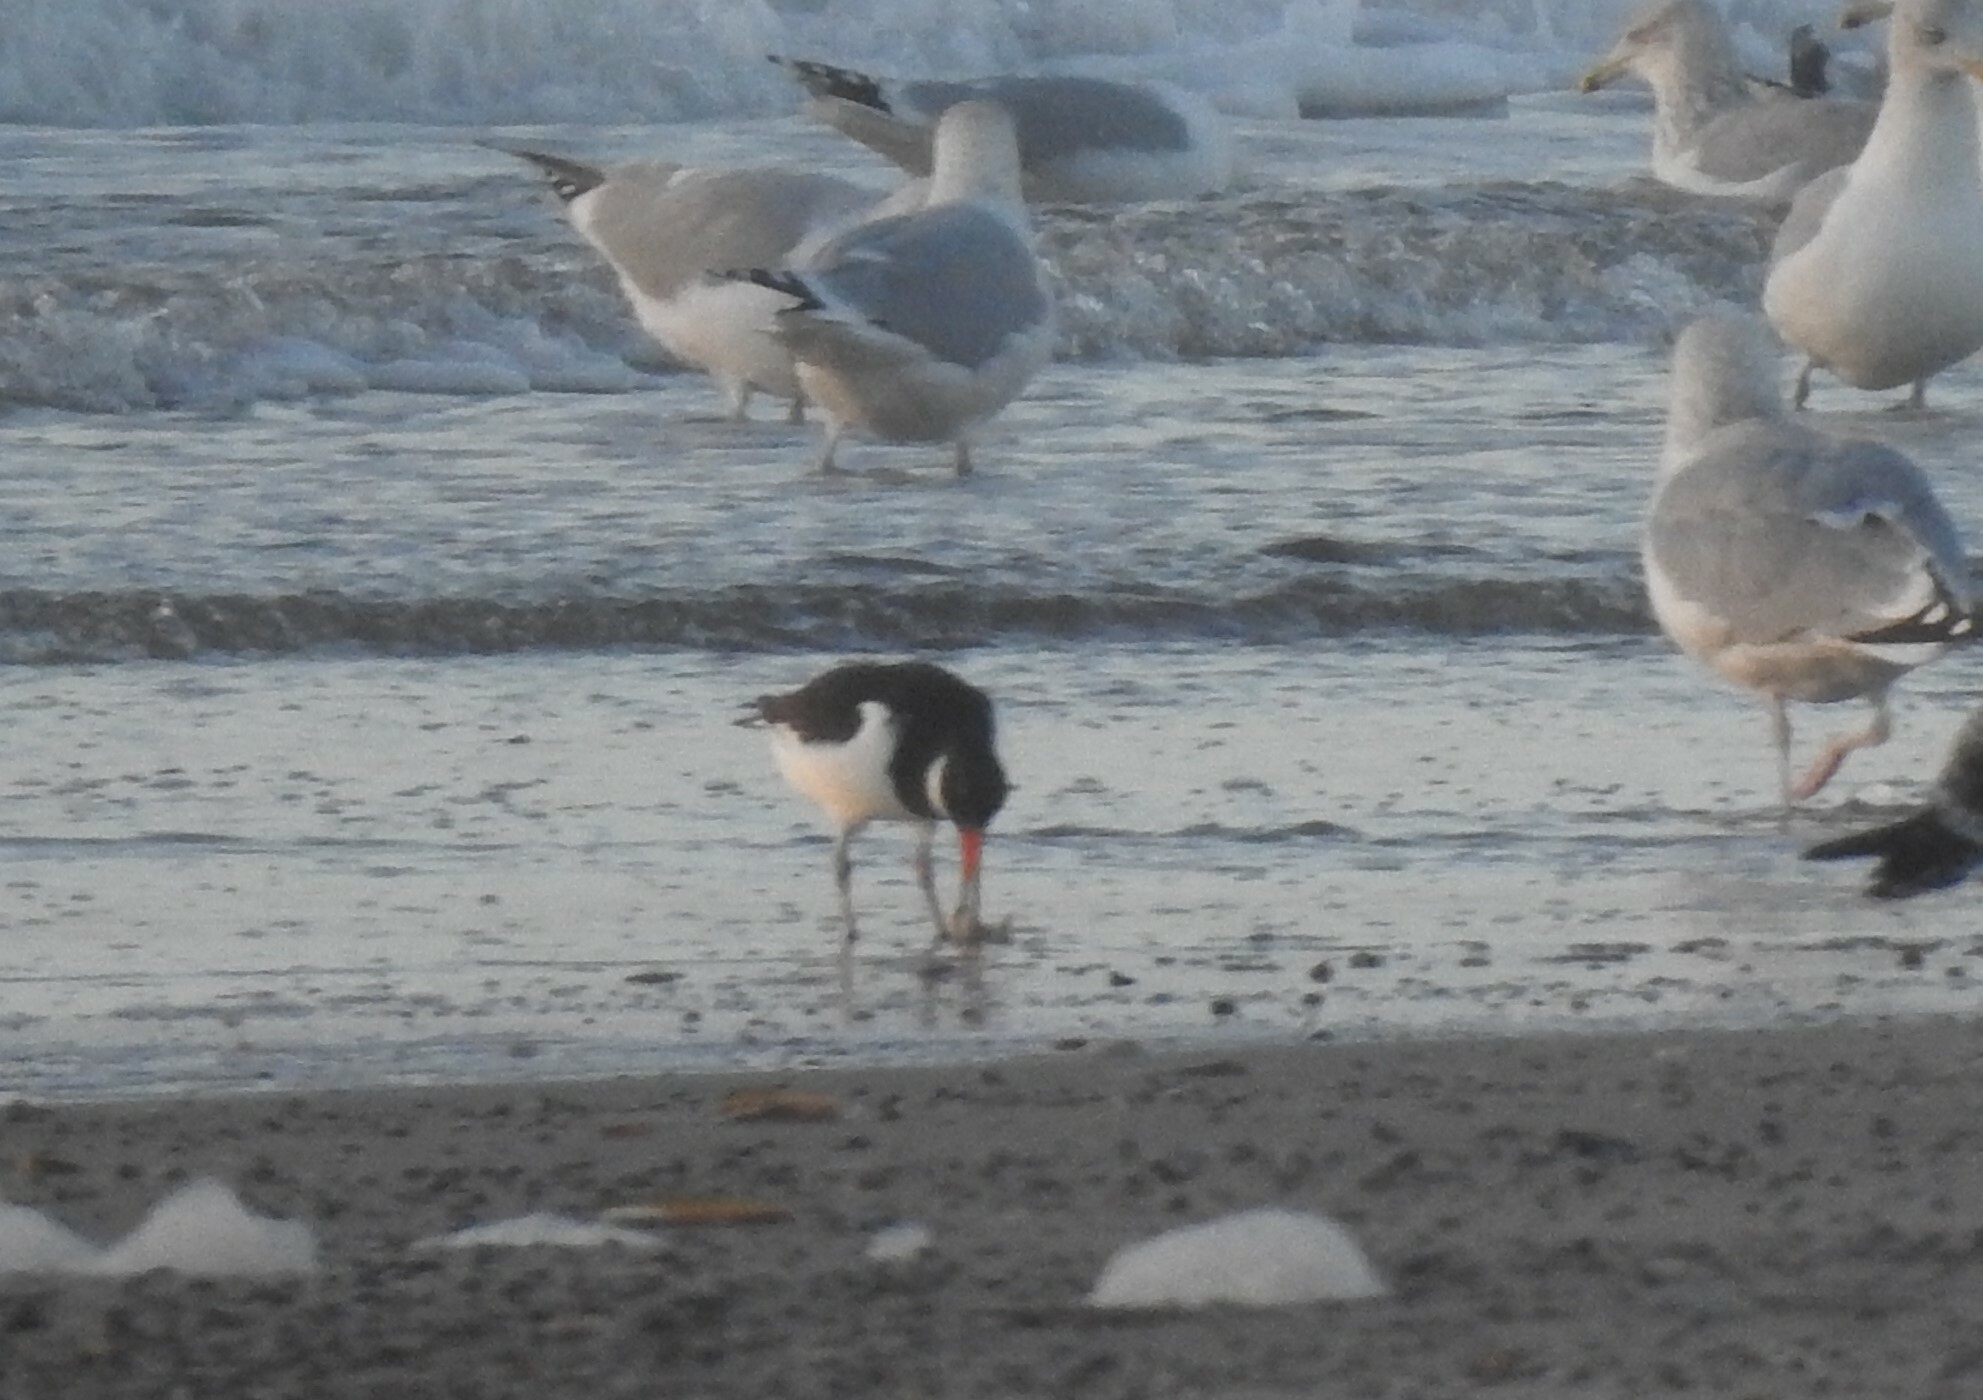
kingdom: Animalia
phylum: Chordata
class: Aves
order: Charadriiformes
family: Haematopodidae
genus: Haematopus
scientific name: Haematopus ostralegus
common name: Eurasian oystercatcher
